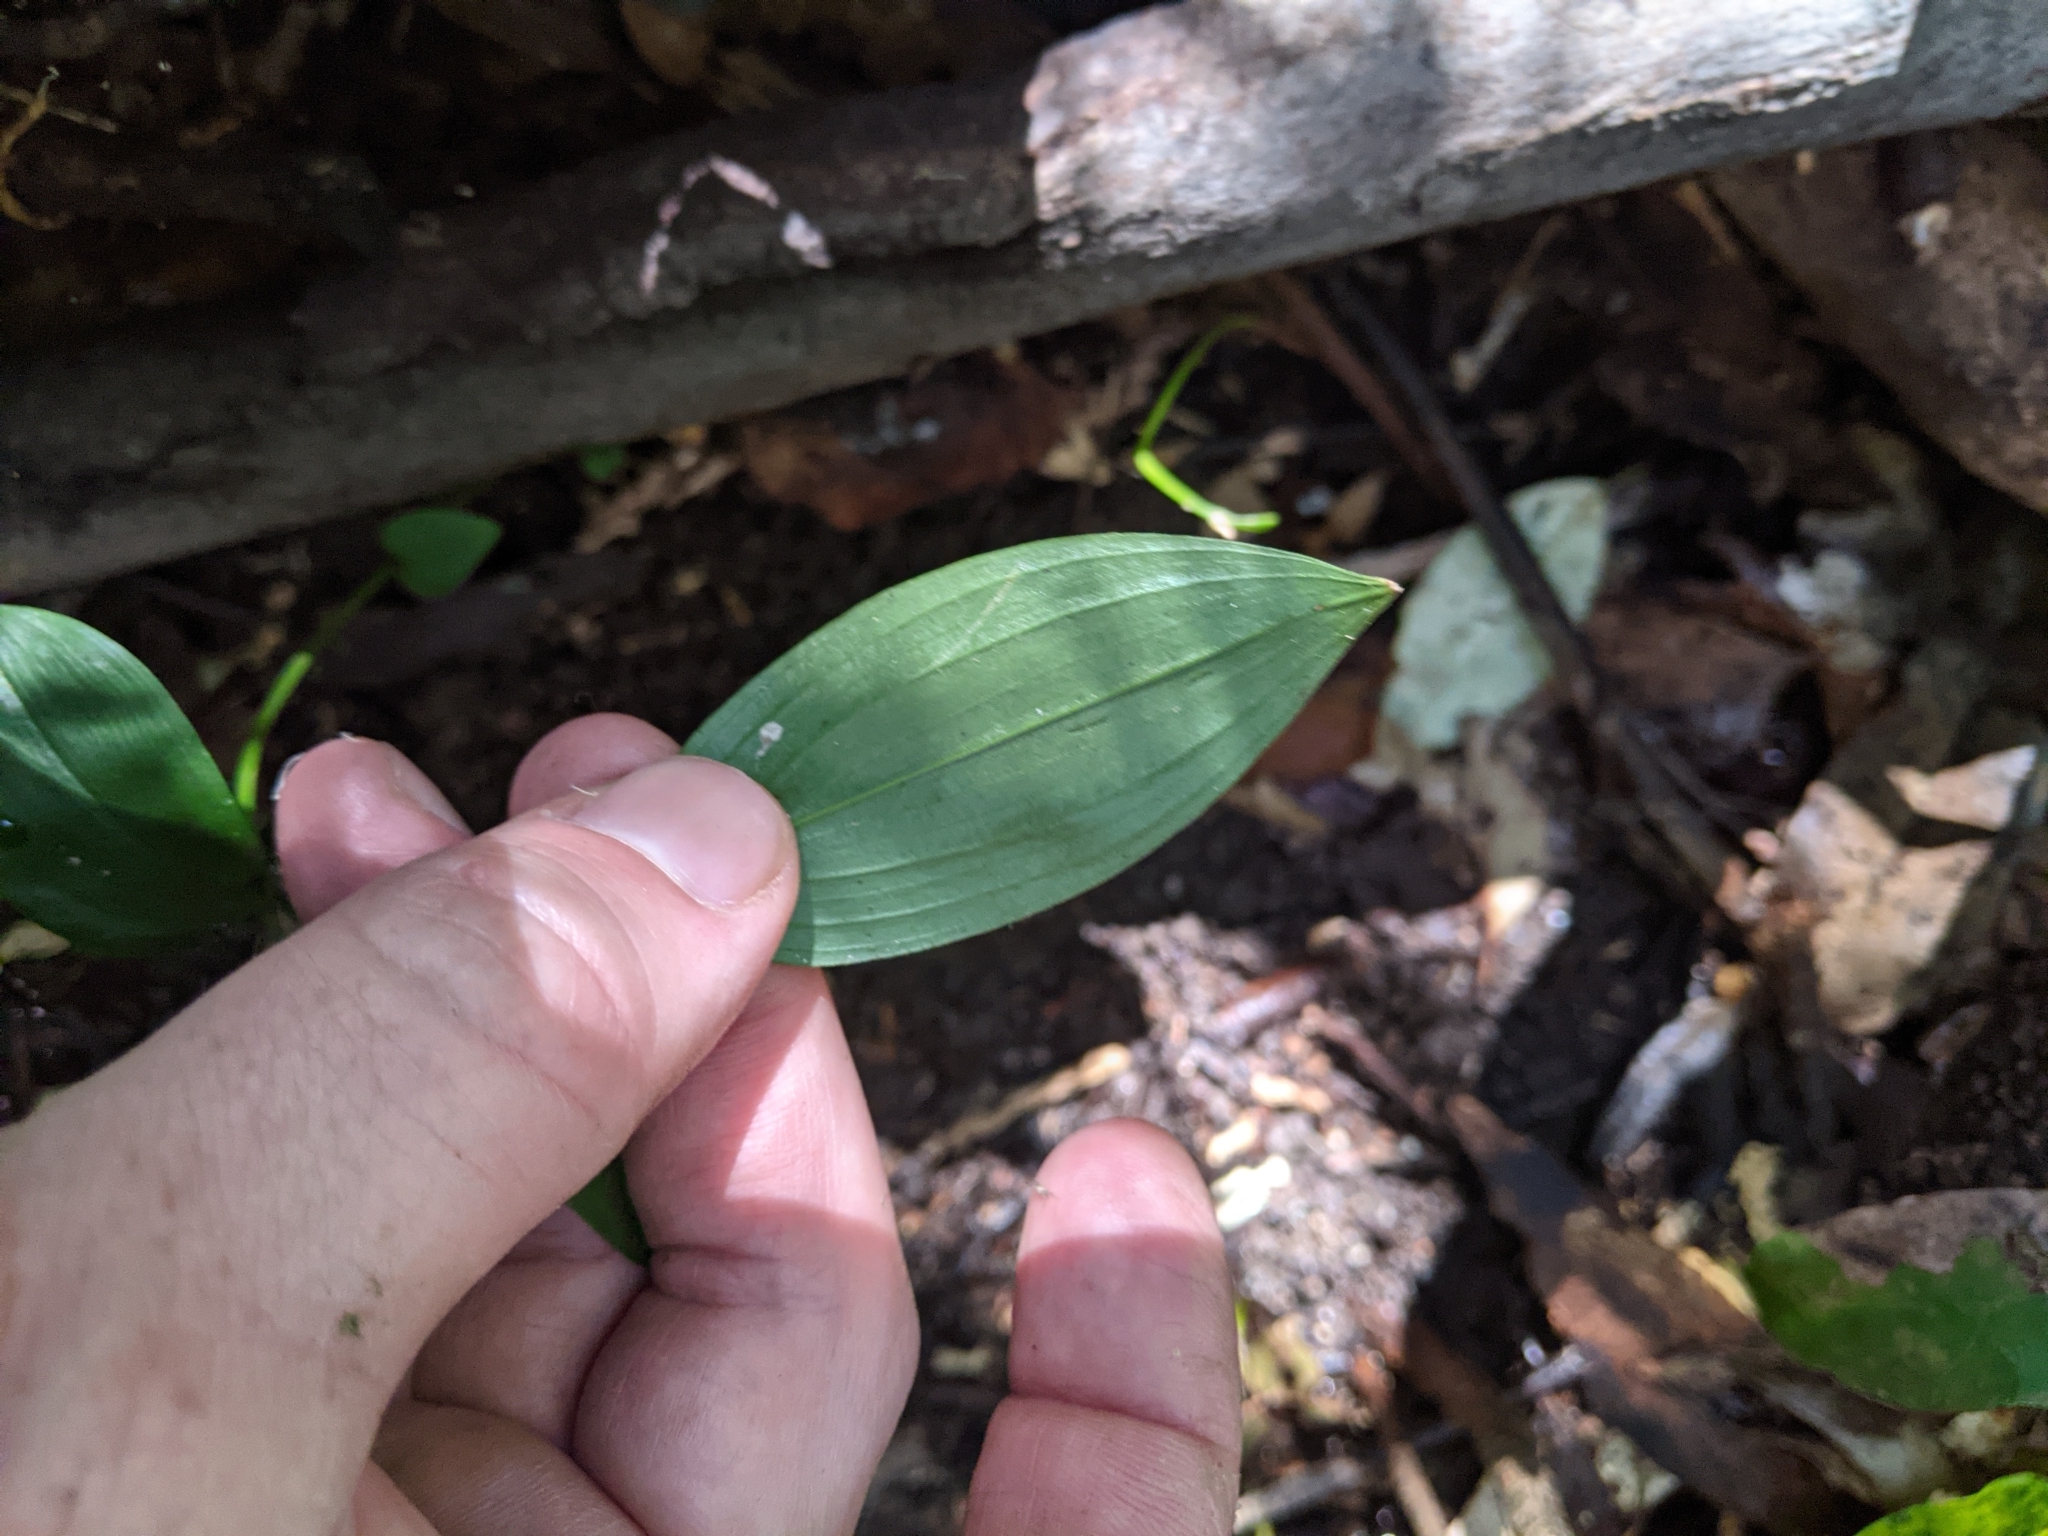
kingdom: Plantae
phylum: Tracheophyta
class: Liliopsida
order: Liliales
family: Colchicaceae
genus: Tripladenia
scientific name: Tripladenia cunninghamii
